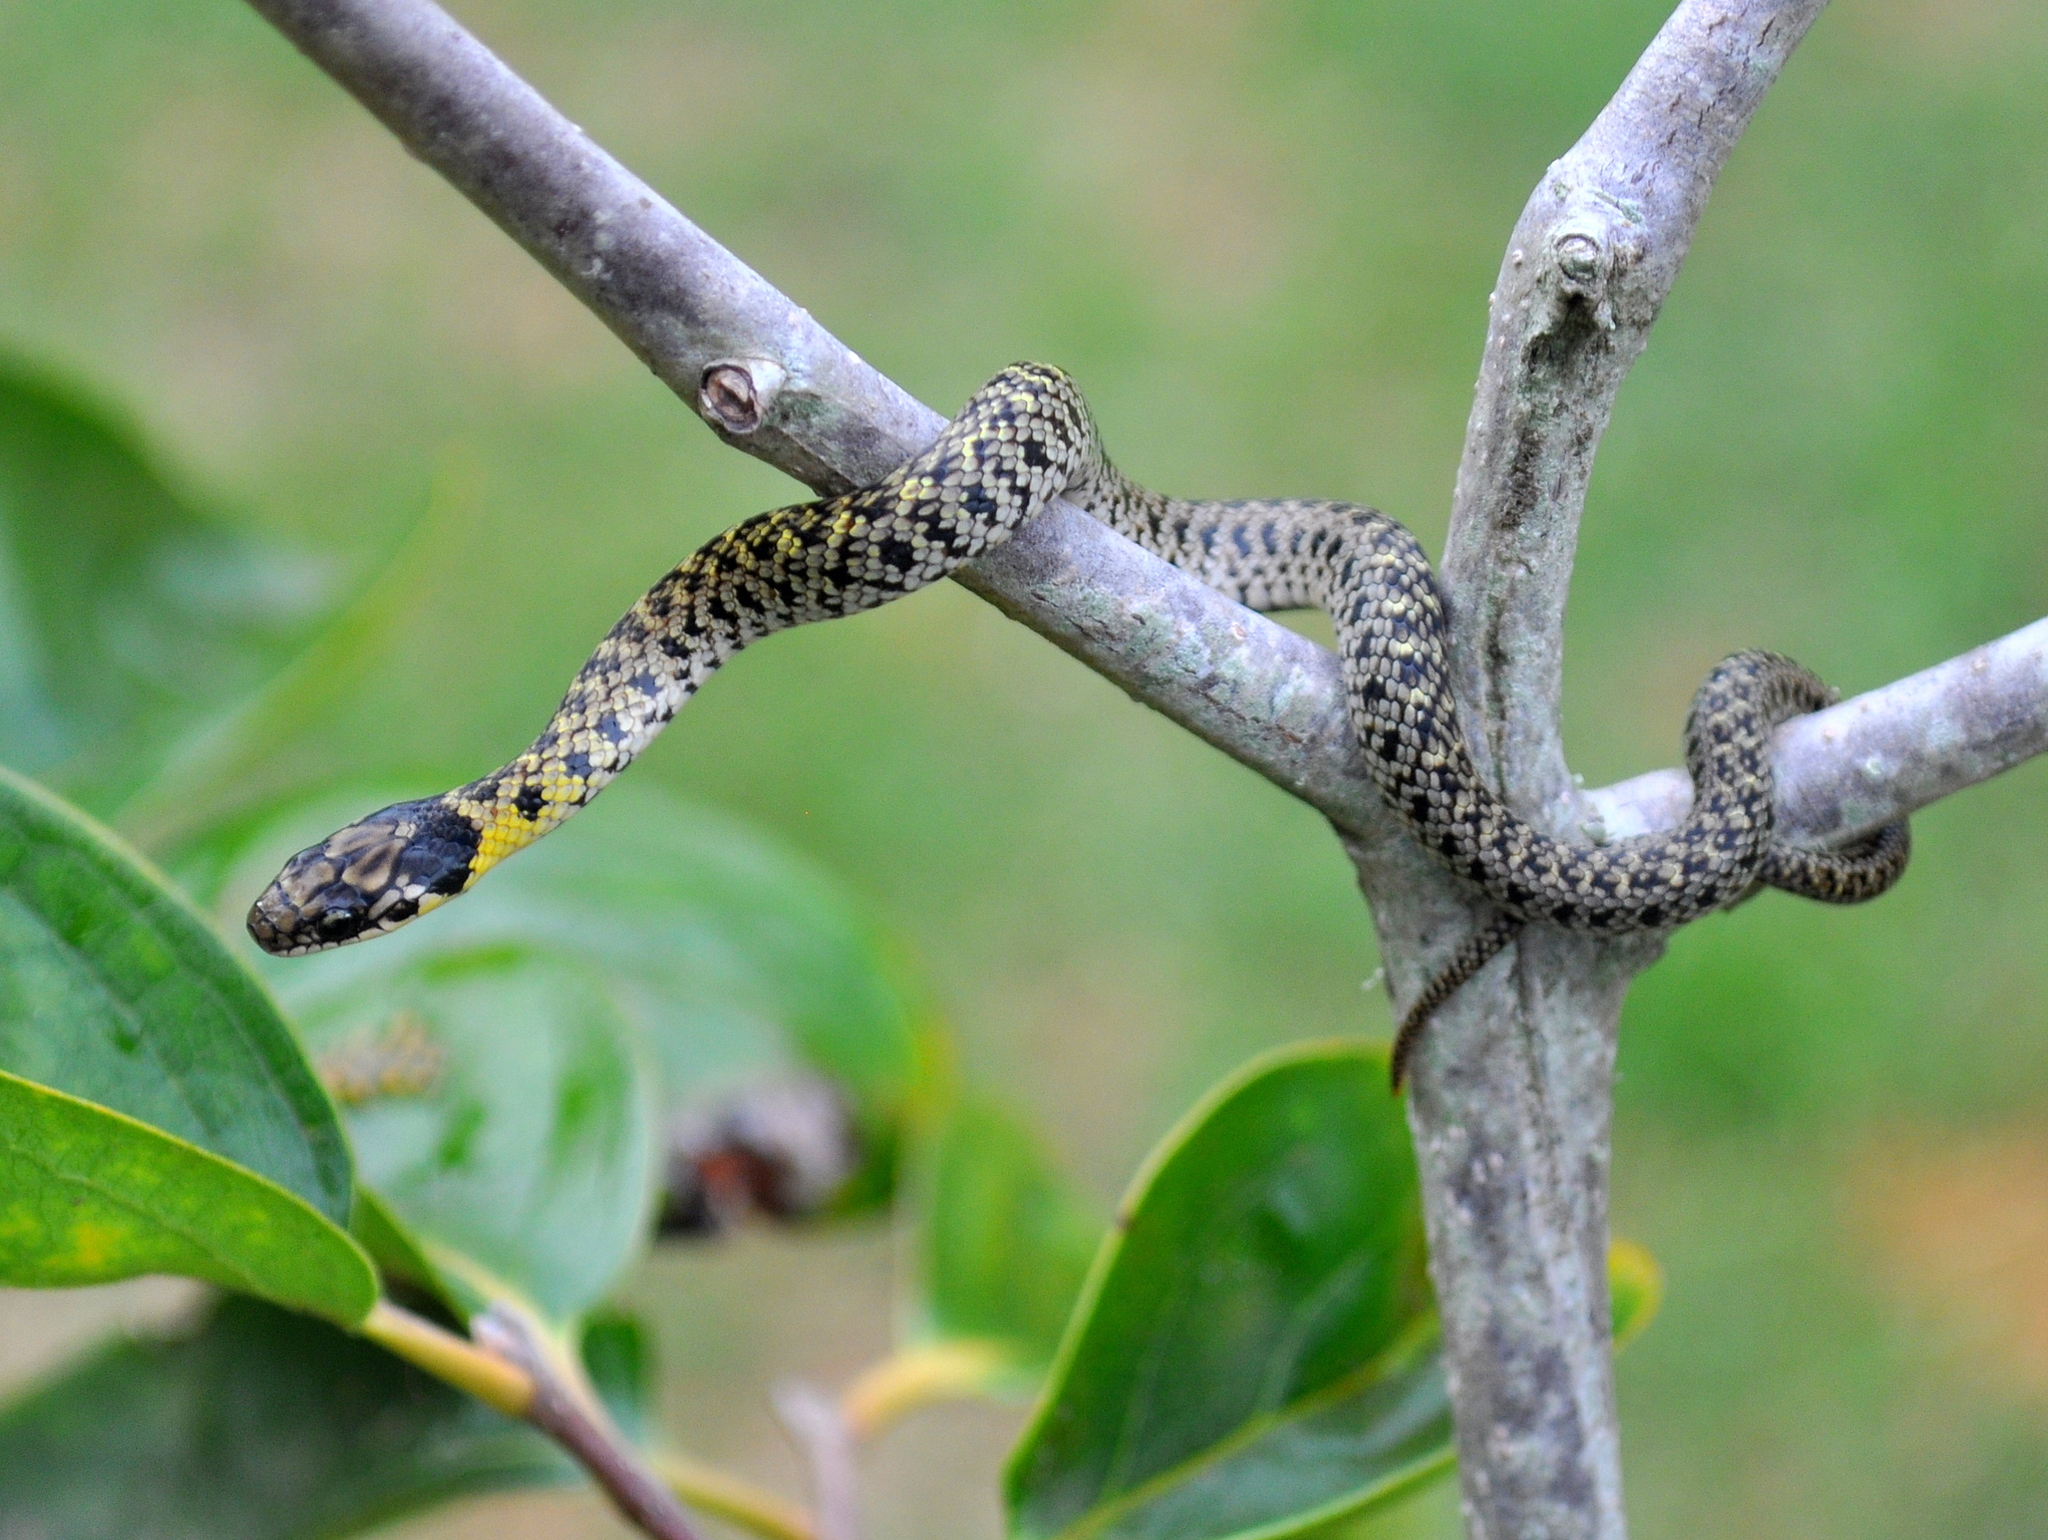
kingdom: Animalia
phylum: Chordata
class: Squamata
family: Colubridae
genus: Erythrolamprus
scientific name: Erythrolamprus poecilogyrus
